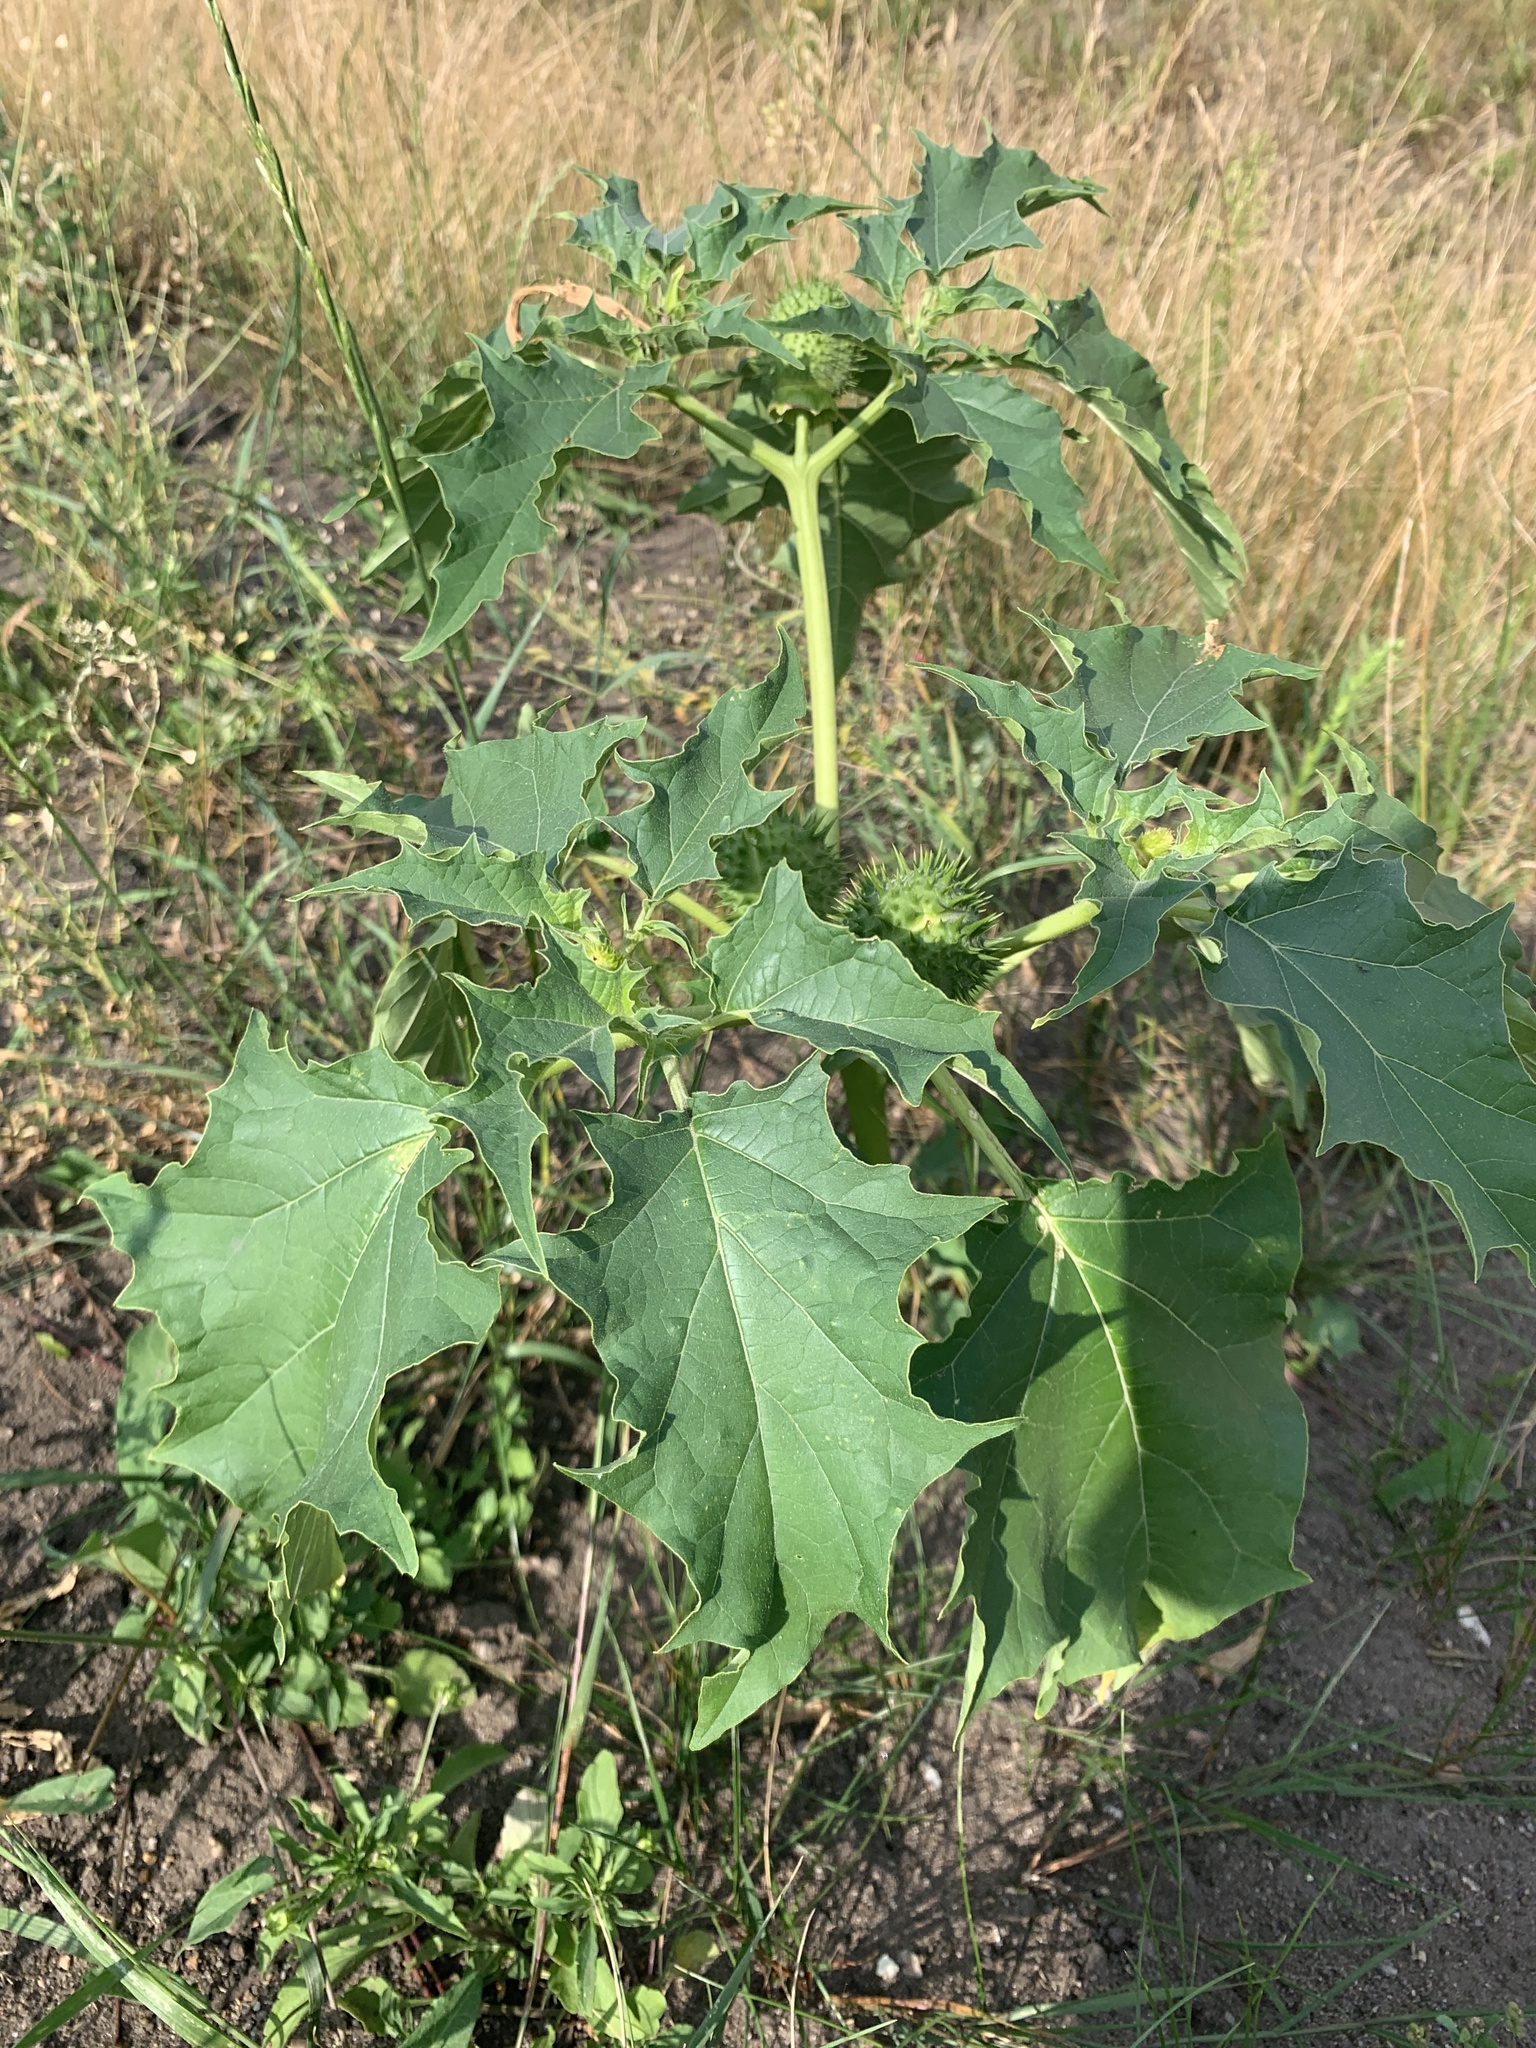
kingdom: Plantae
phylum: Tracheophyta
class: Magnoliopsida
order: Solanales
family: Solanaceae
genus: Datura
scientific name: Datura stramonium
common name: Thorn-apple
